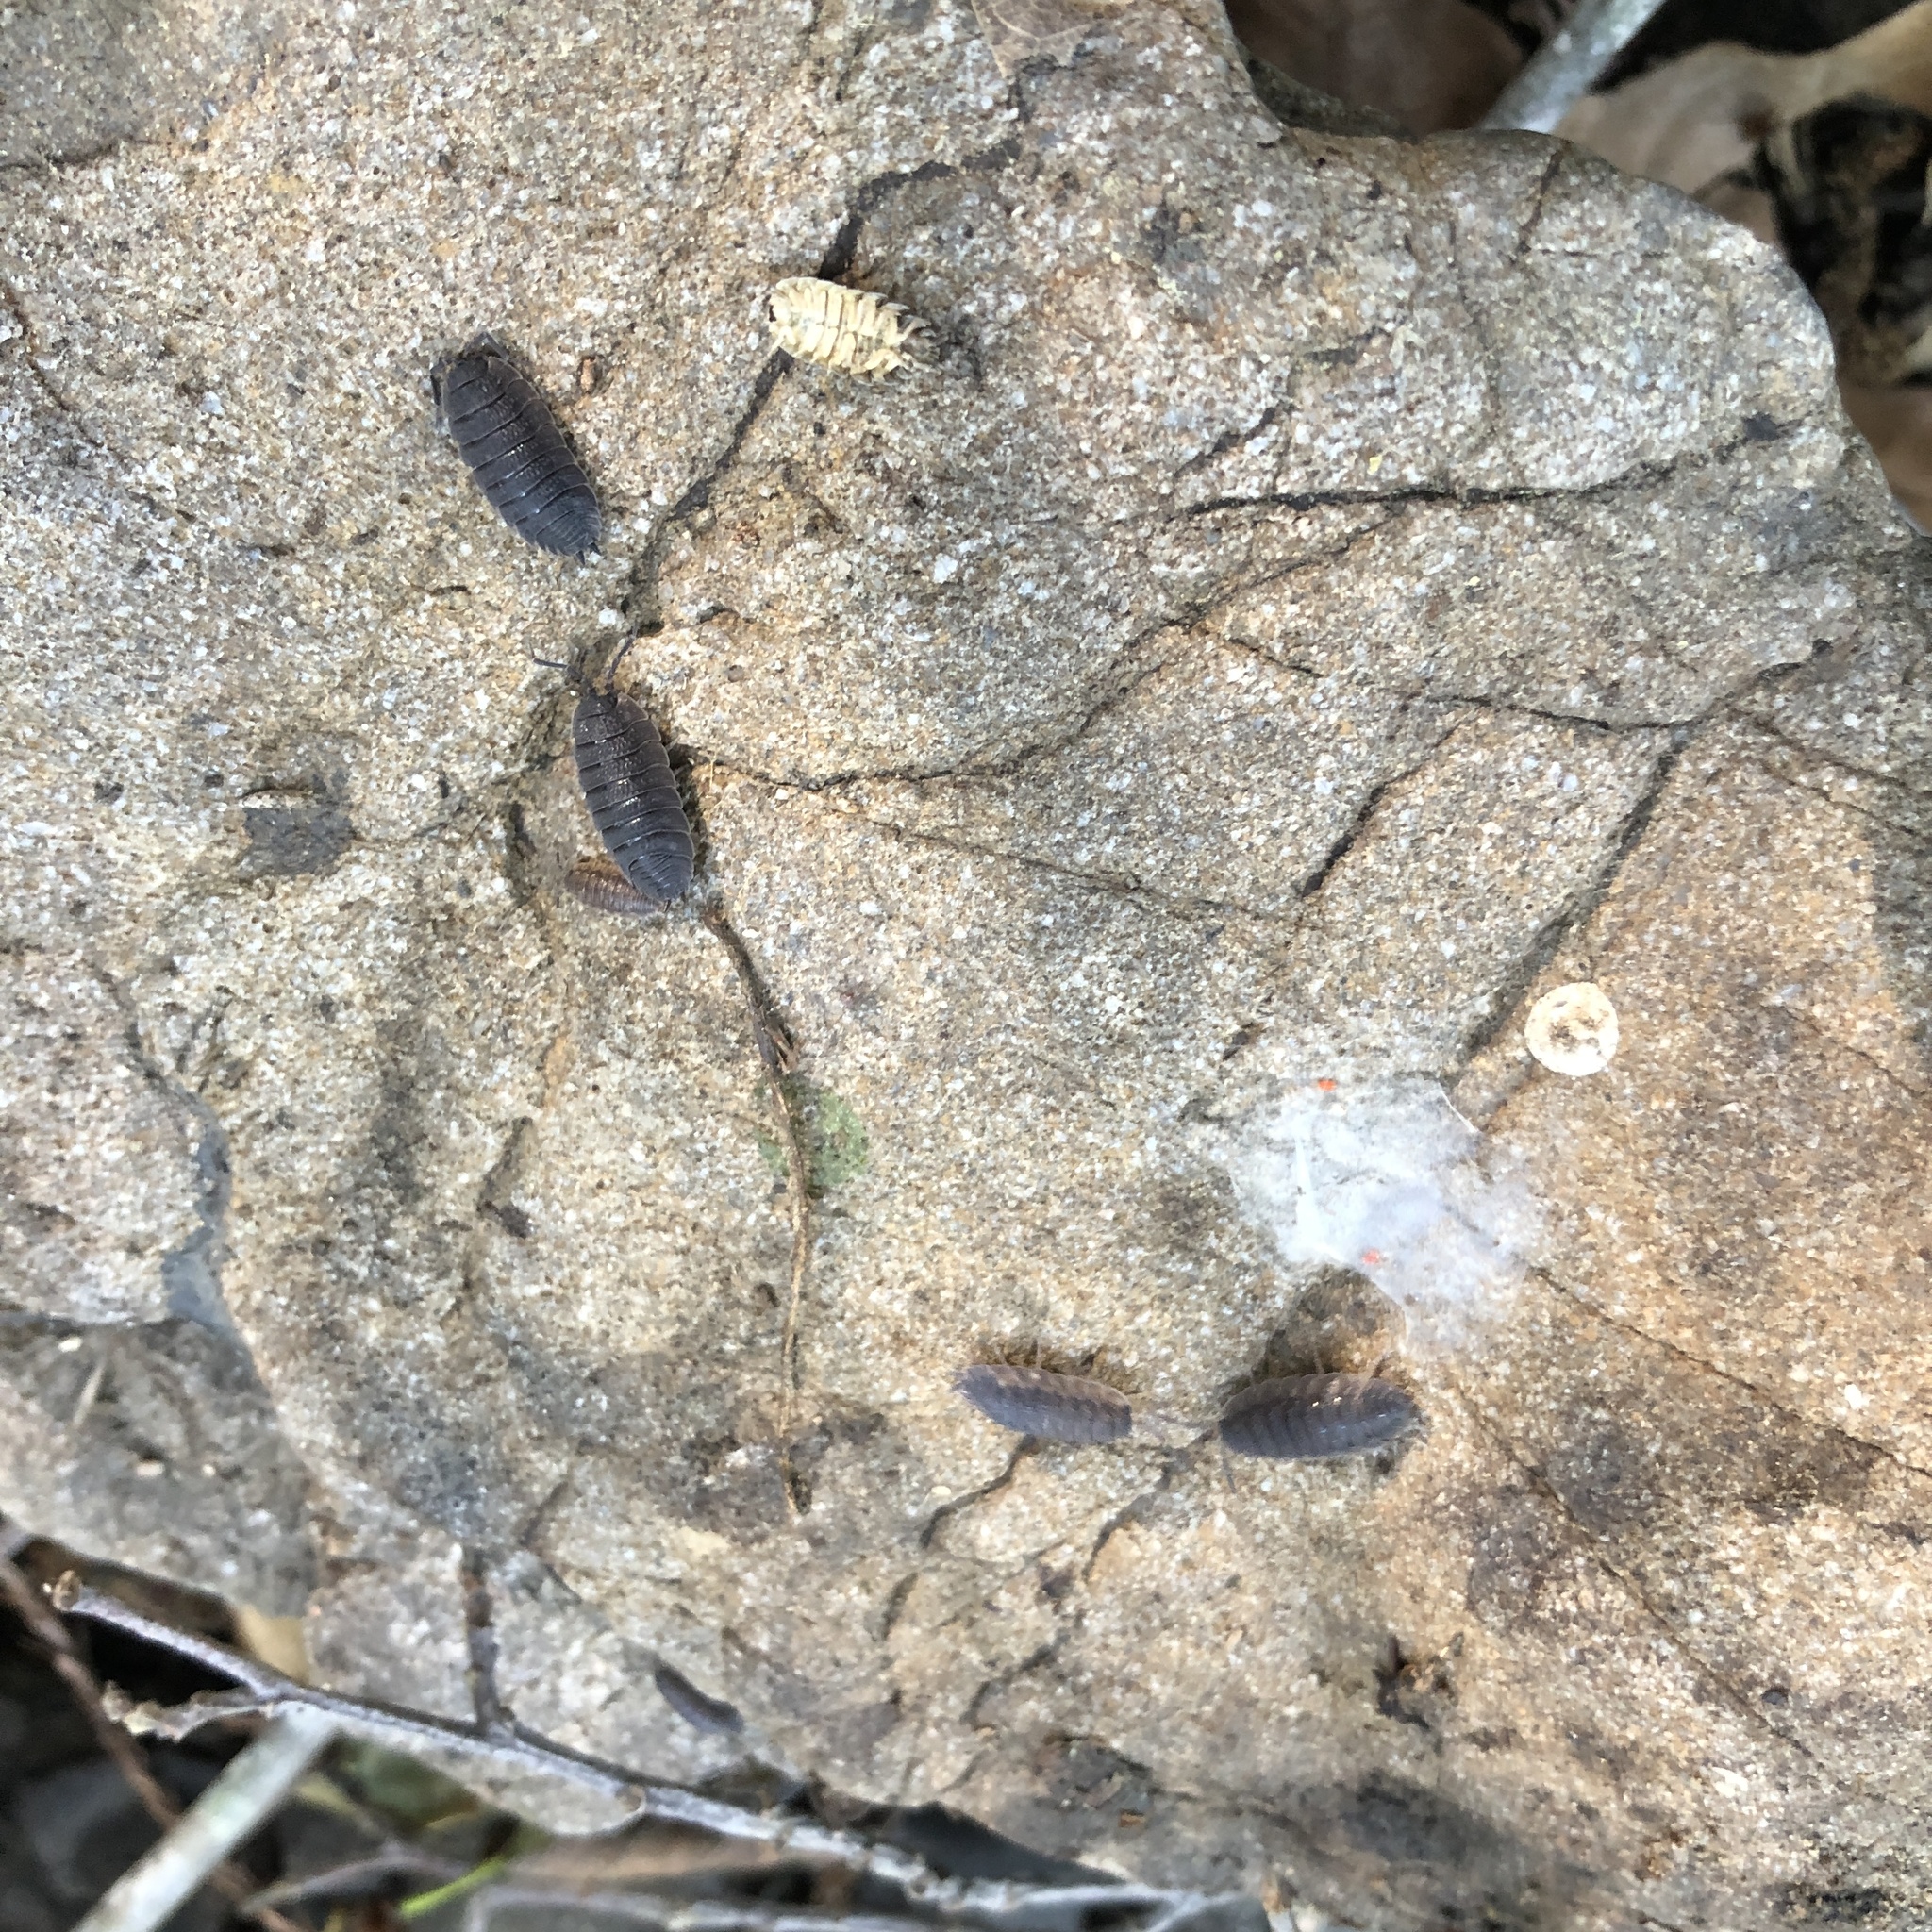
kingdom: Animalia
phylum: Arthropoda
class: Malacostraca
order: Isopoda
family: Porcellionidae
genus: Porcellio
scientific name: Porcellio scaber
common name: Common rough woodlouse
